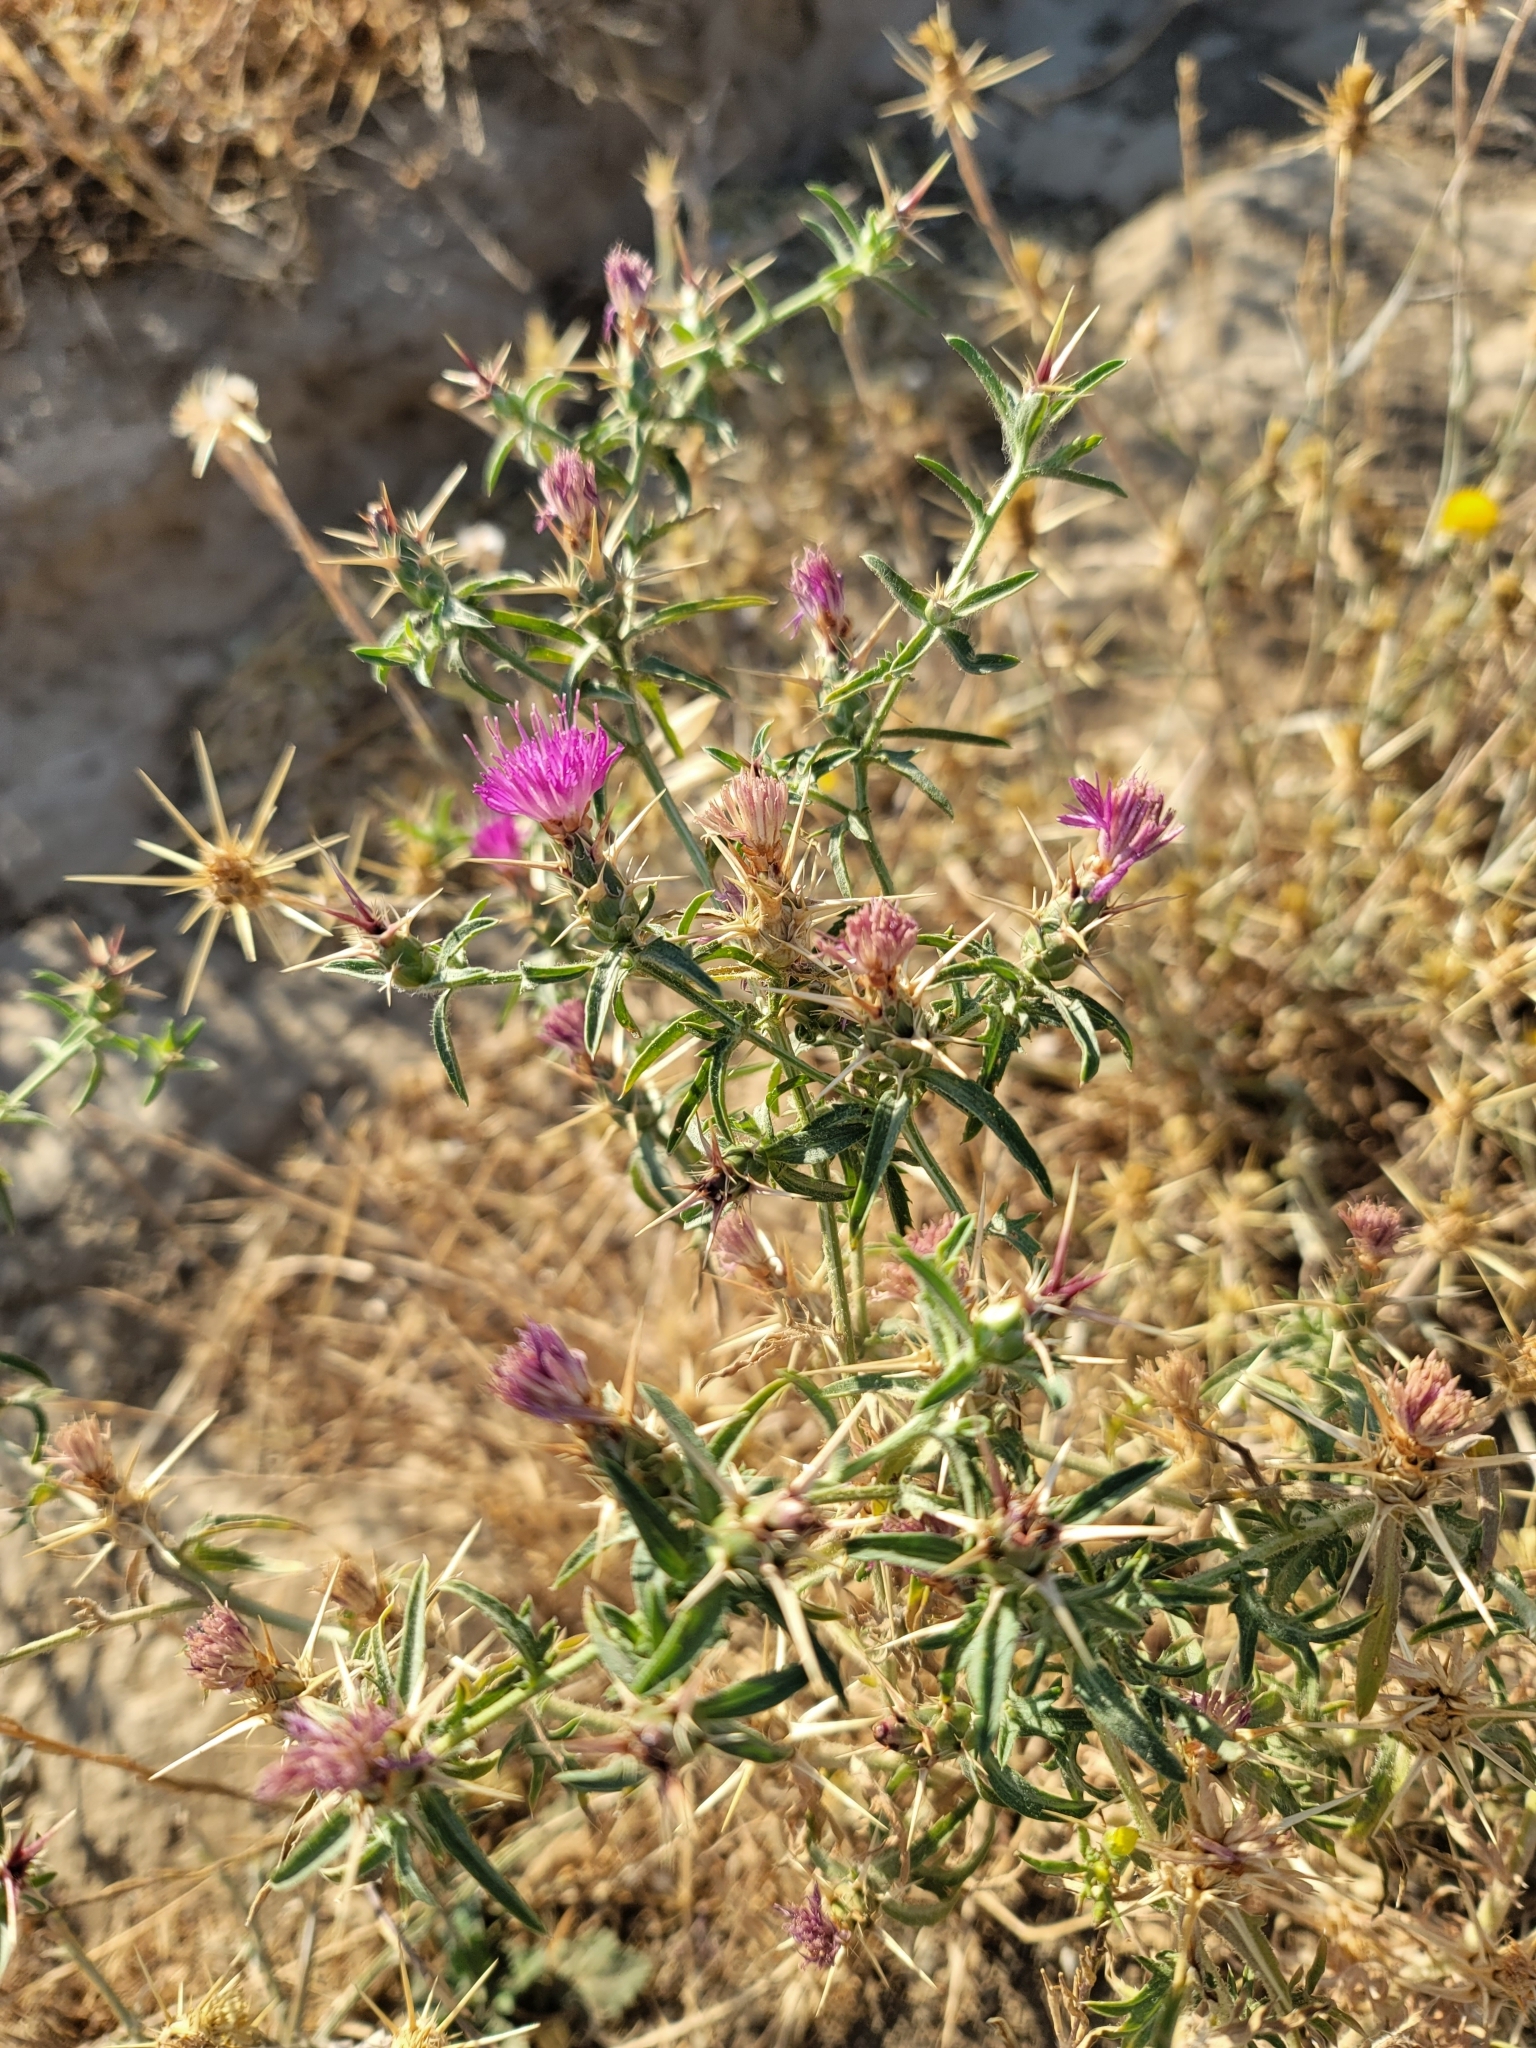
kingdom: Plantae
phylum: Tracheophyta
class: Magnoliopsida
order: Asterales
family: Asteraceae
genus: Centaurea
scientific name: Centaurea calcitrapa
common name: Red star-thistle
